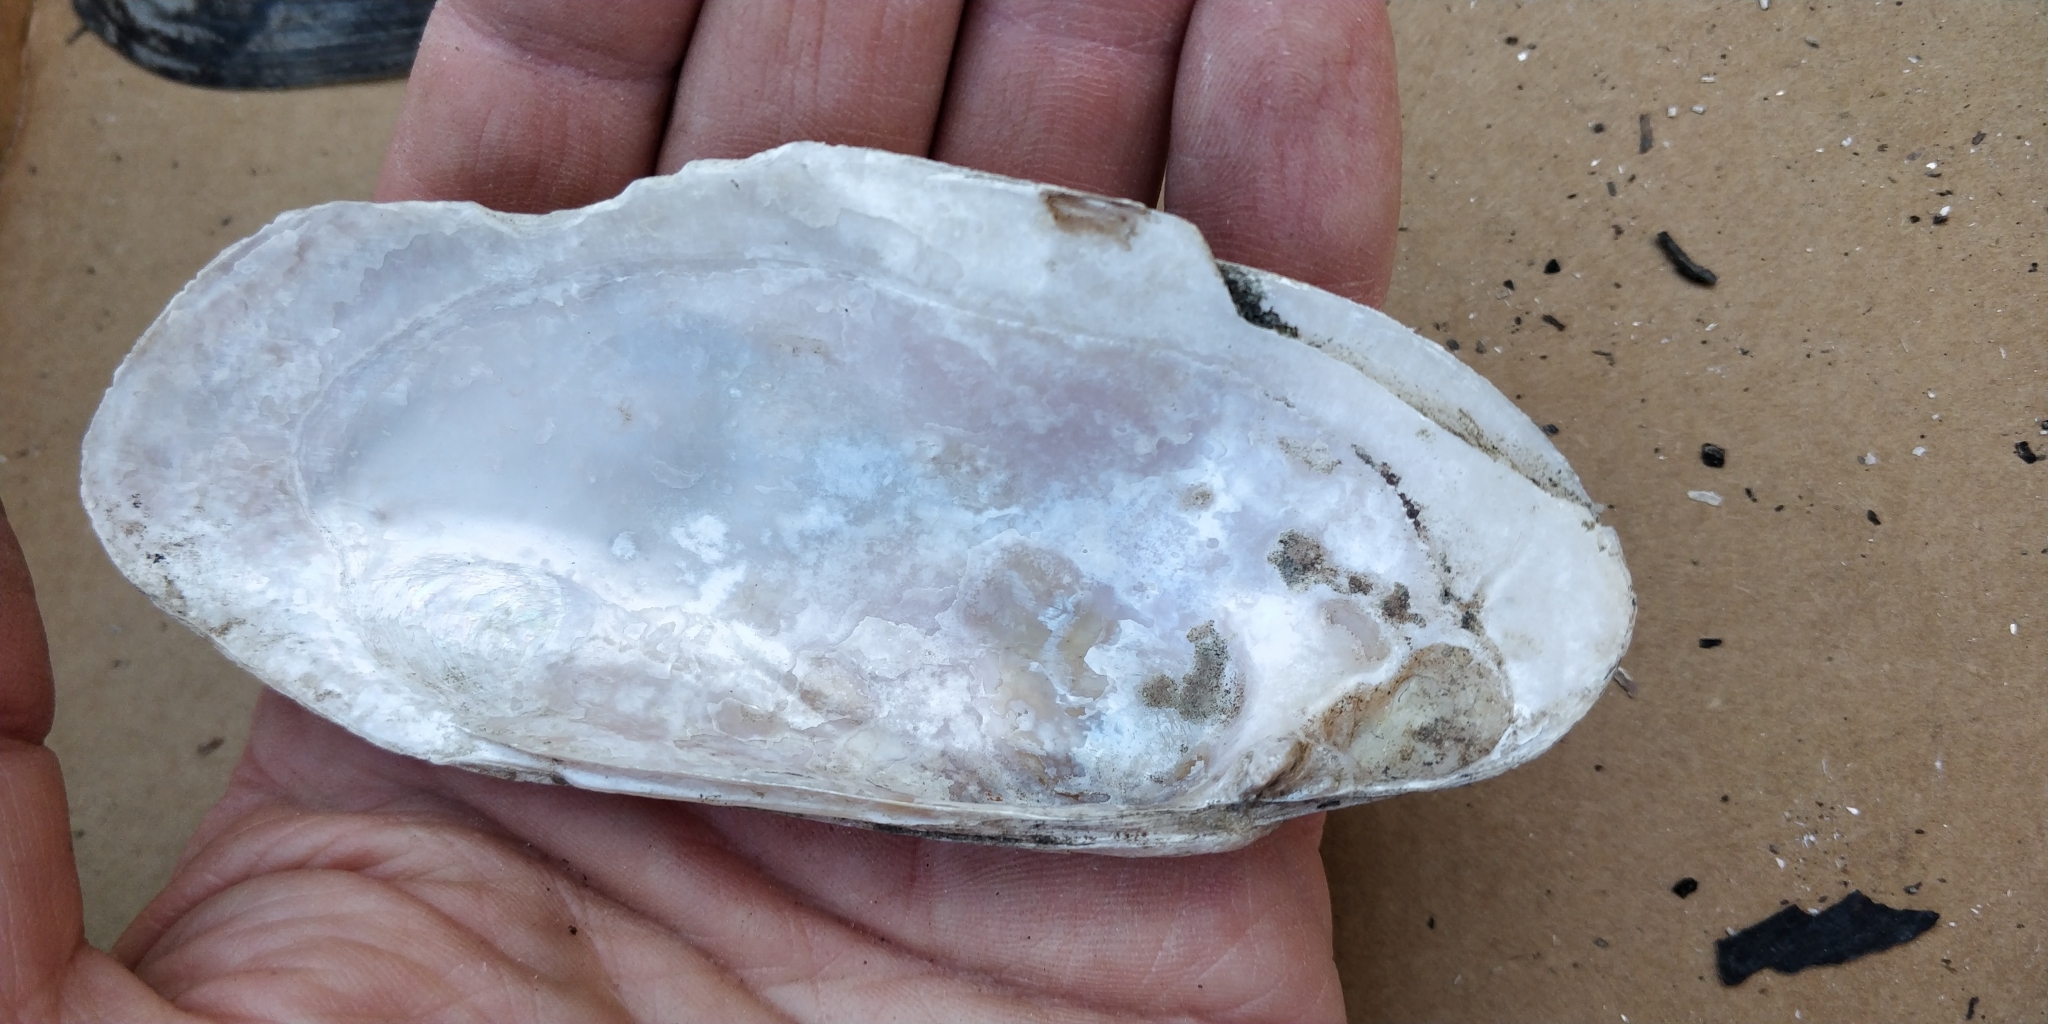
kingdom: Animalia
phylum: Mollusca
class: Bivalvia
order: Unionida
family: Unionidae
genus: Ligumia
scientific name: Ligumia recta
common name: Black sandshell
